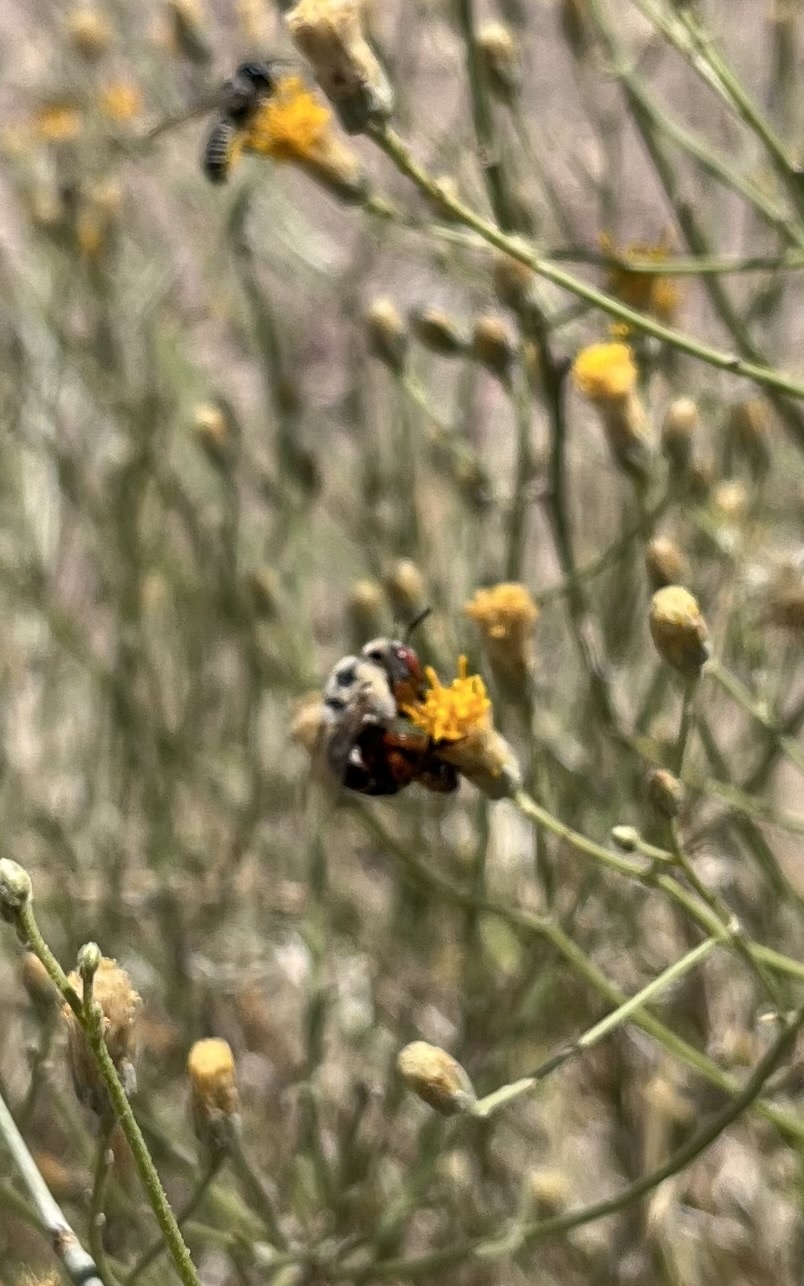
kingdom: Animalia
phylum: Arthropoda
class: Insecta
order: Hymenoptera
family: Apidae
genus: Centris
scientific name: Centris rhodopus
